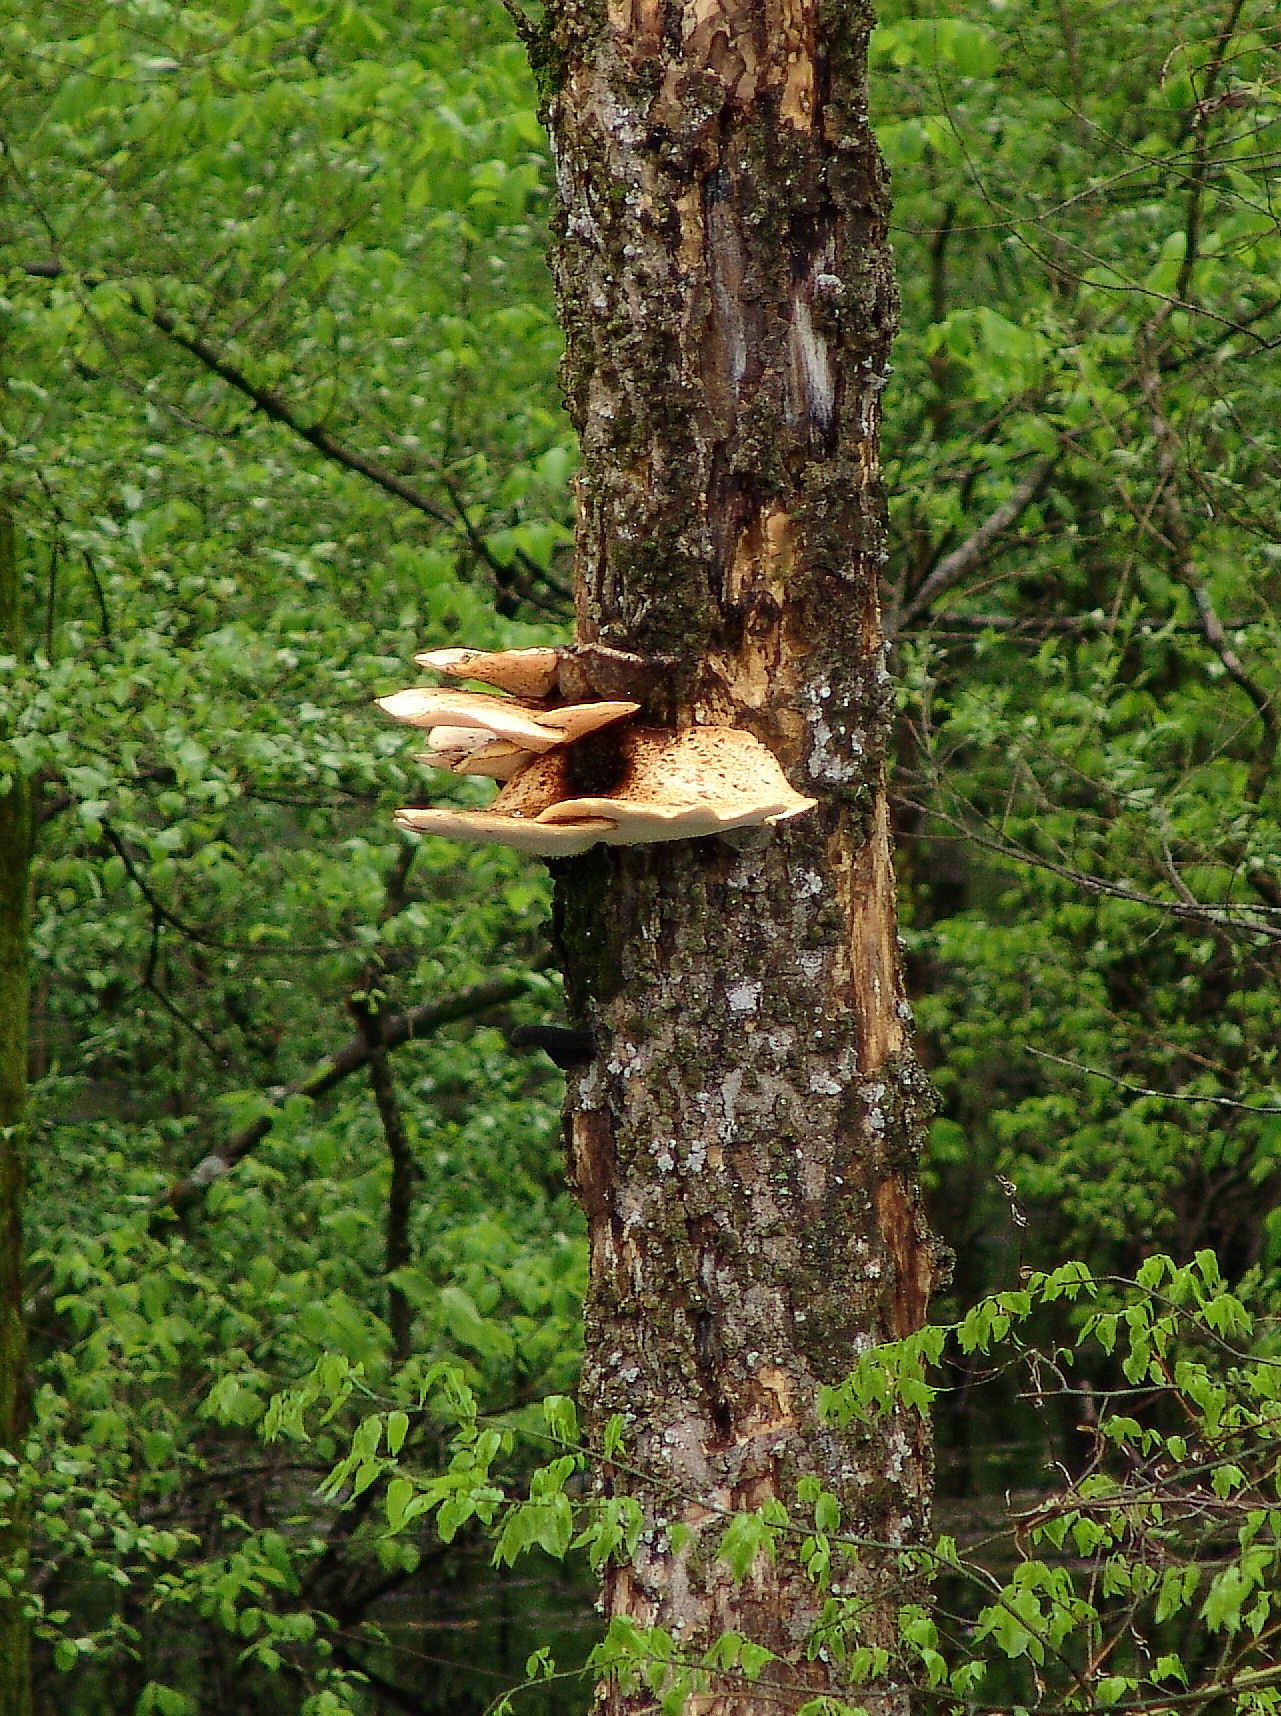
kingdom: Fungi
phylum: Basidiomycota
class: Agaricomycetes
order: Polyporales
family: Polyporaceae
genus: Cerioporus
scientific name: Cerioporus squamosus
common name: Dryad's saddle
